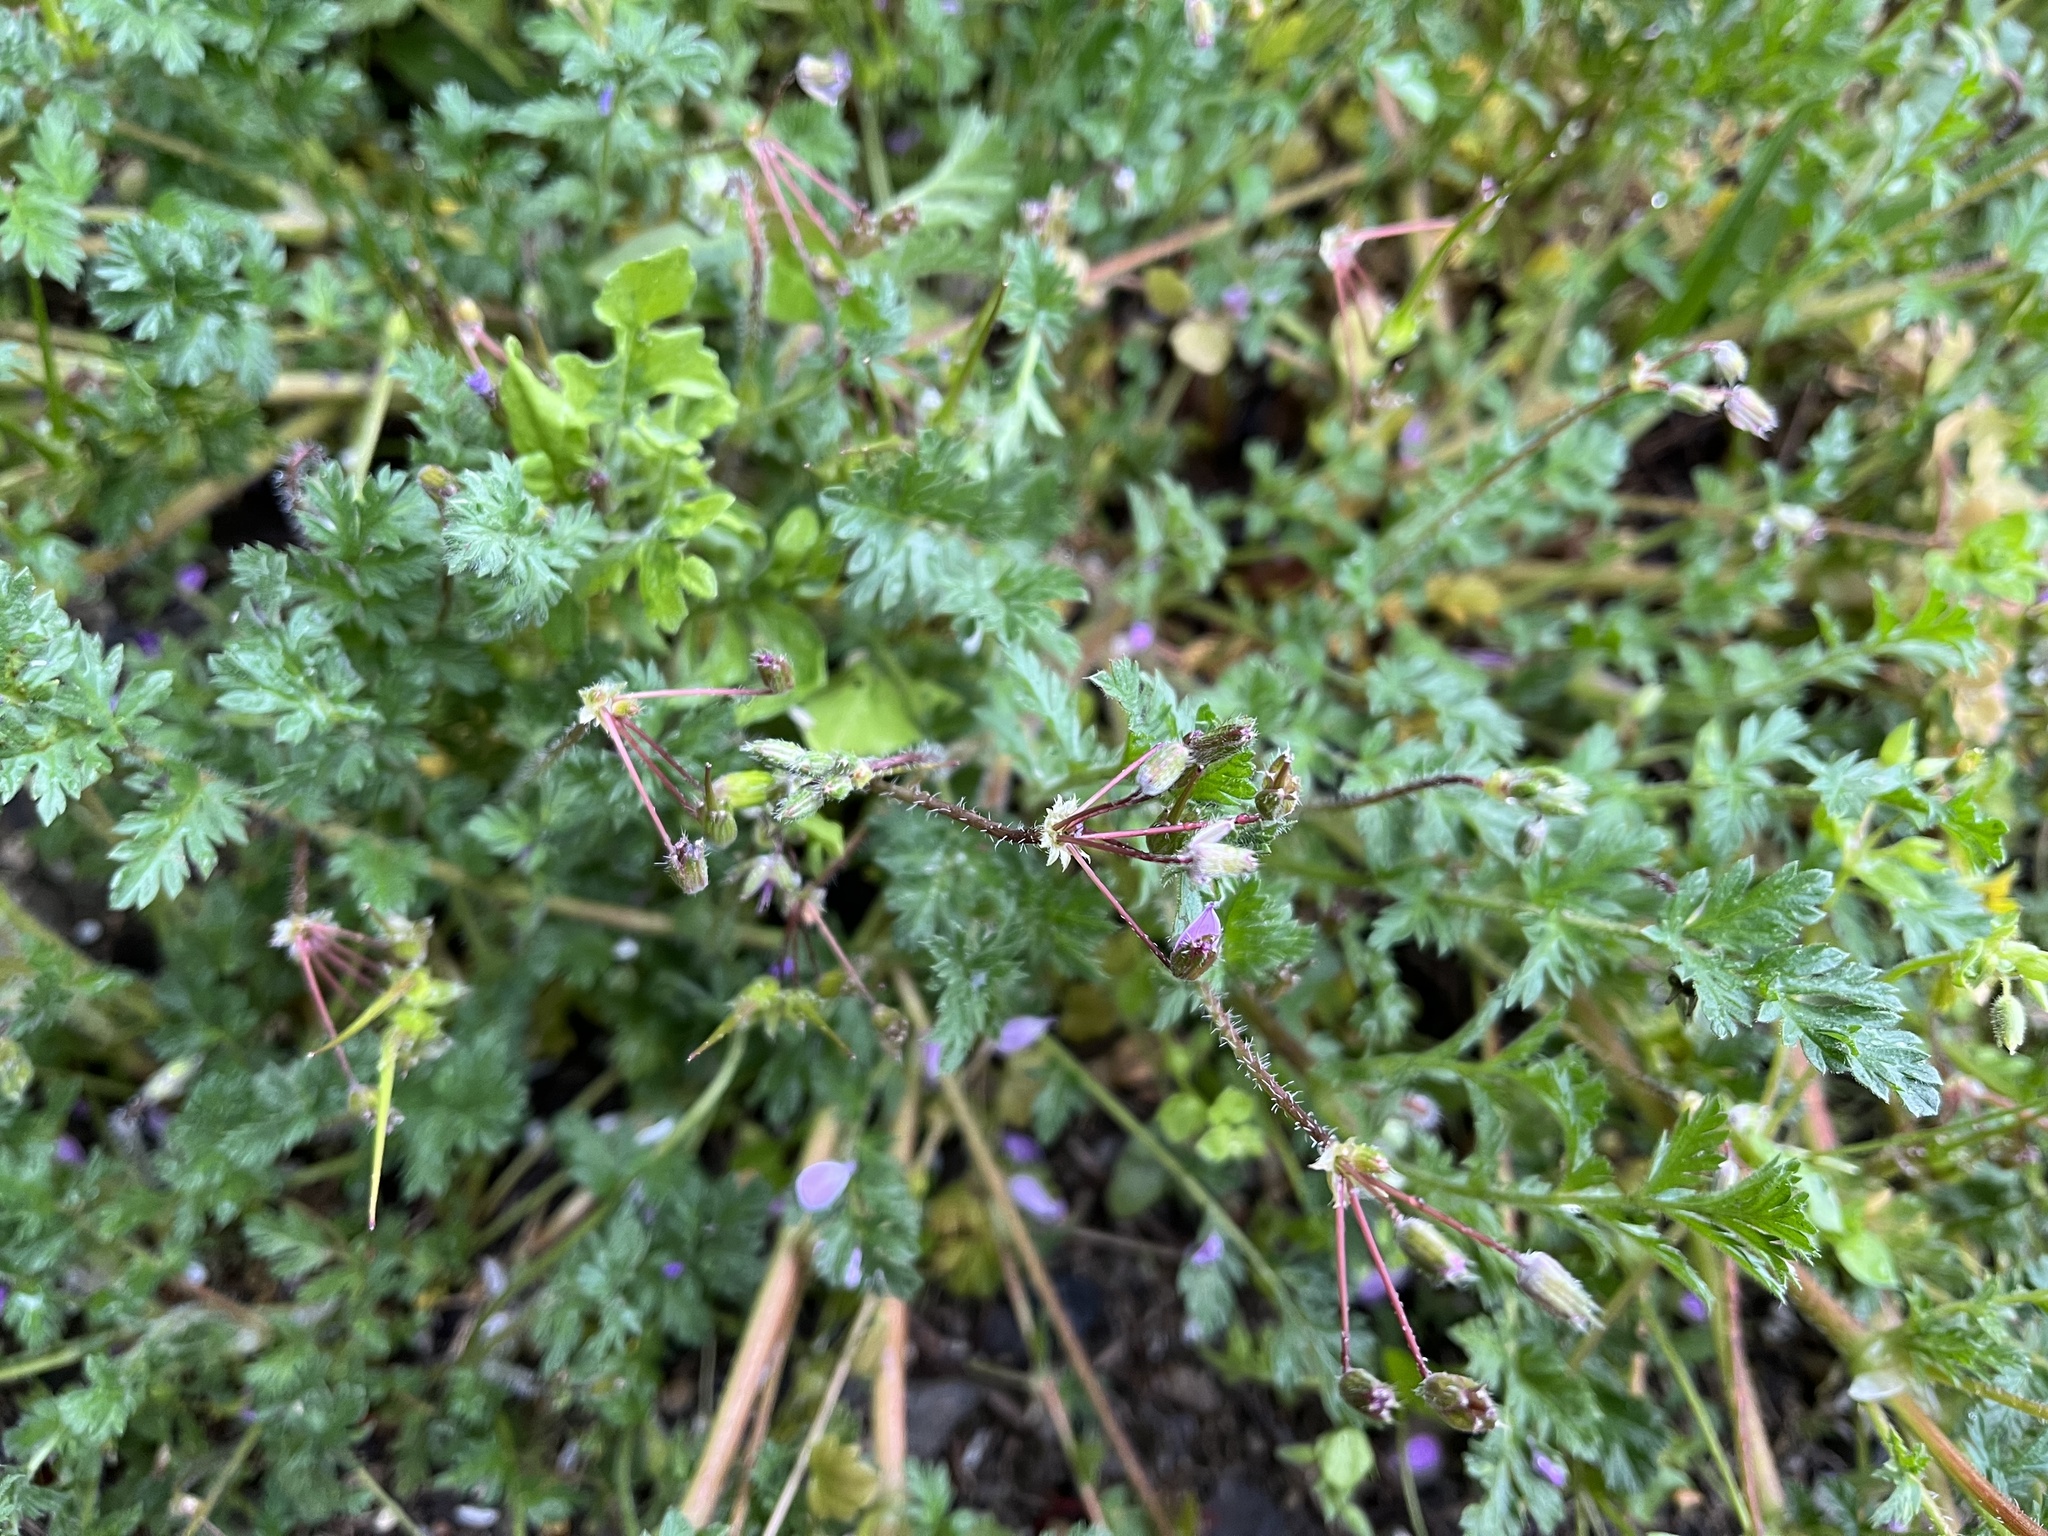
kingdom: Plantae
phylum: Tracheophyta
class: Magnoliopsida
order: Geraniales
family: Geraniaceae
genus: Erodium
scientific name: Erodium cicutarium
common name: Common stork's-bill
